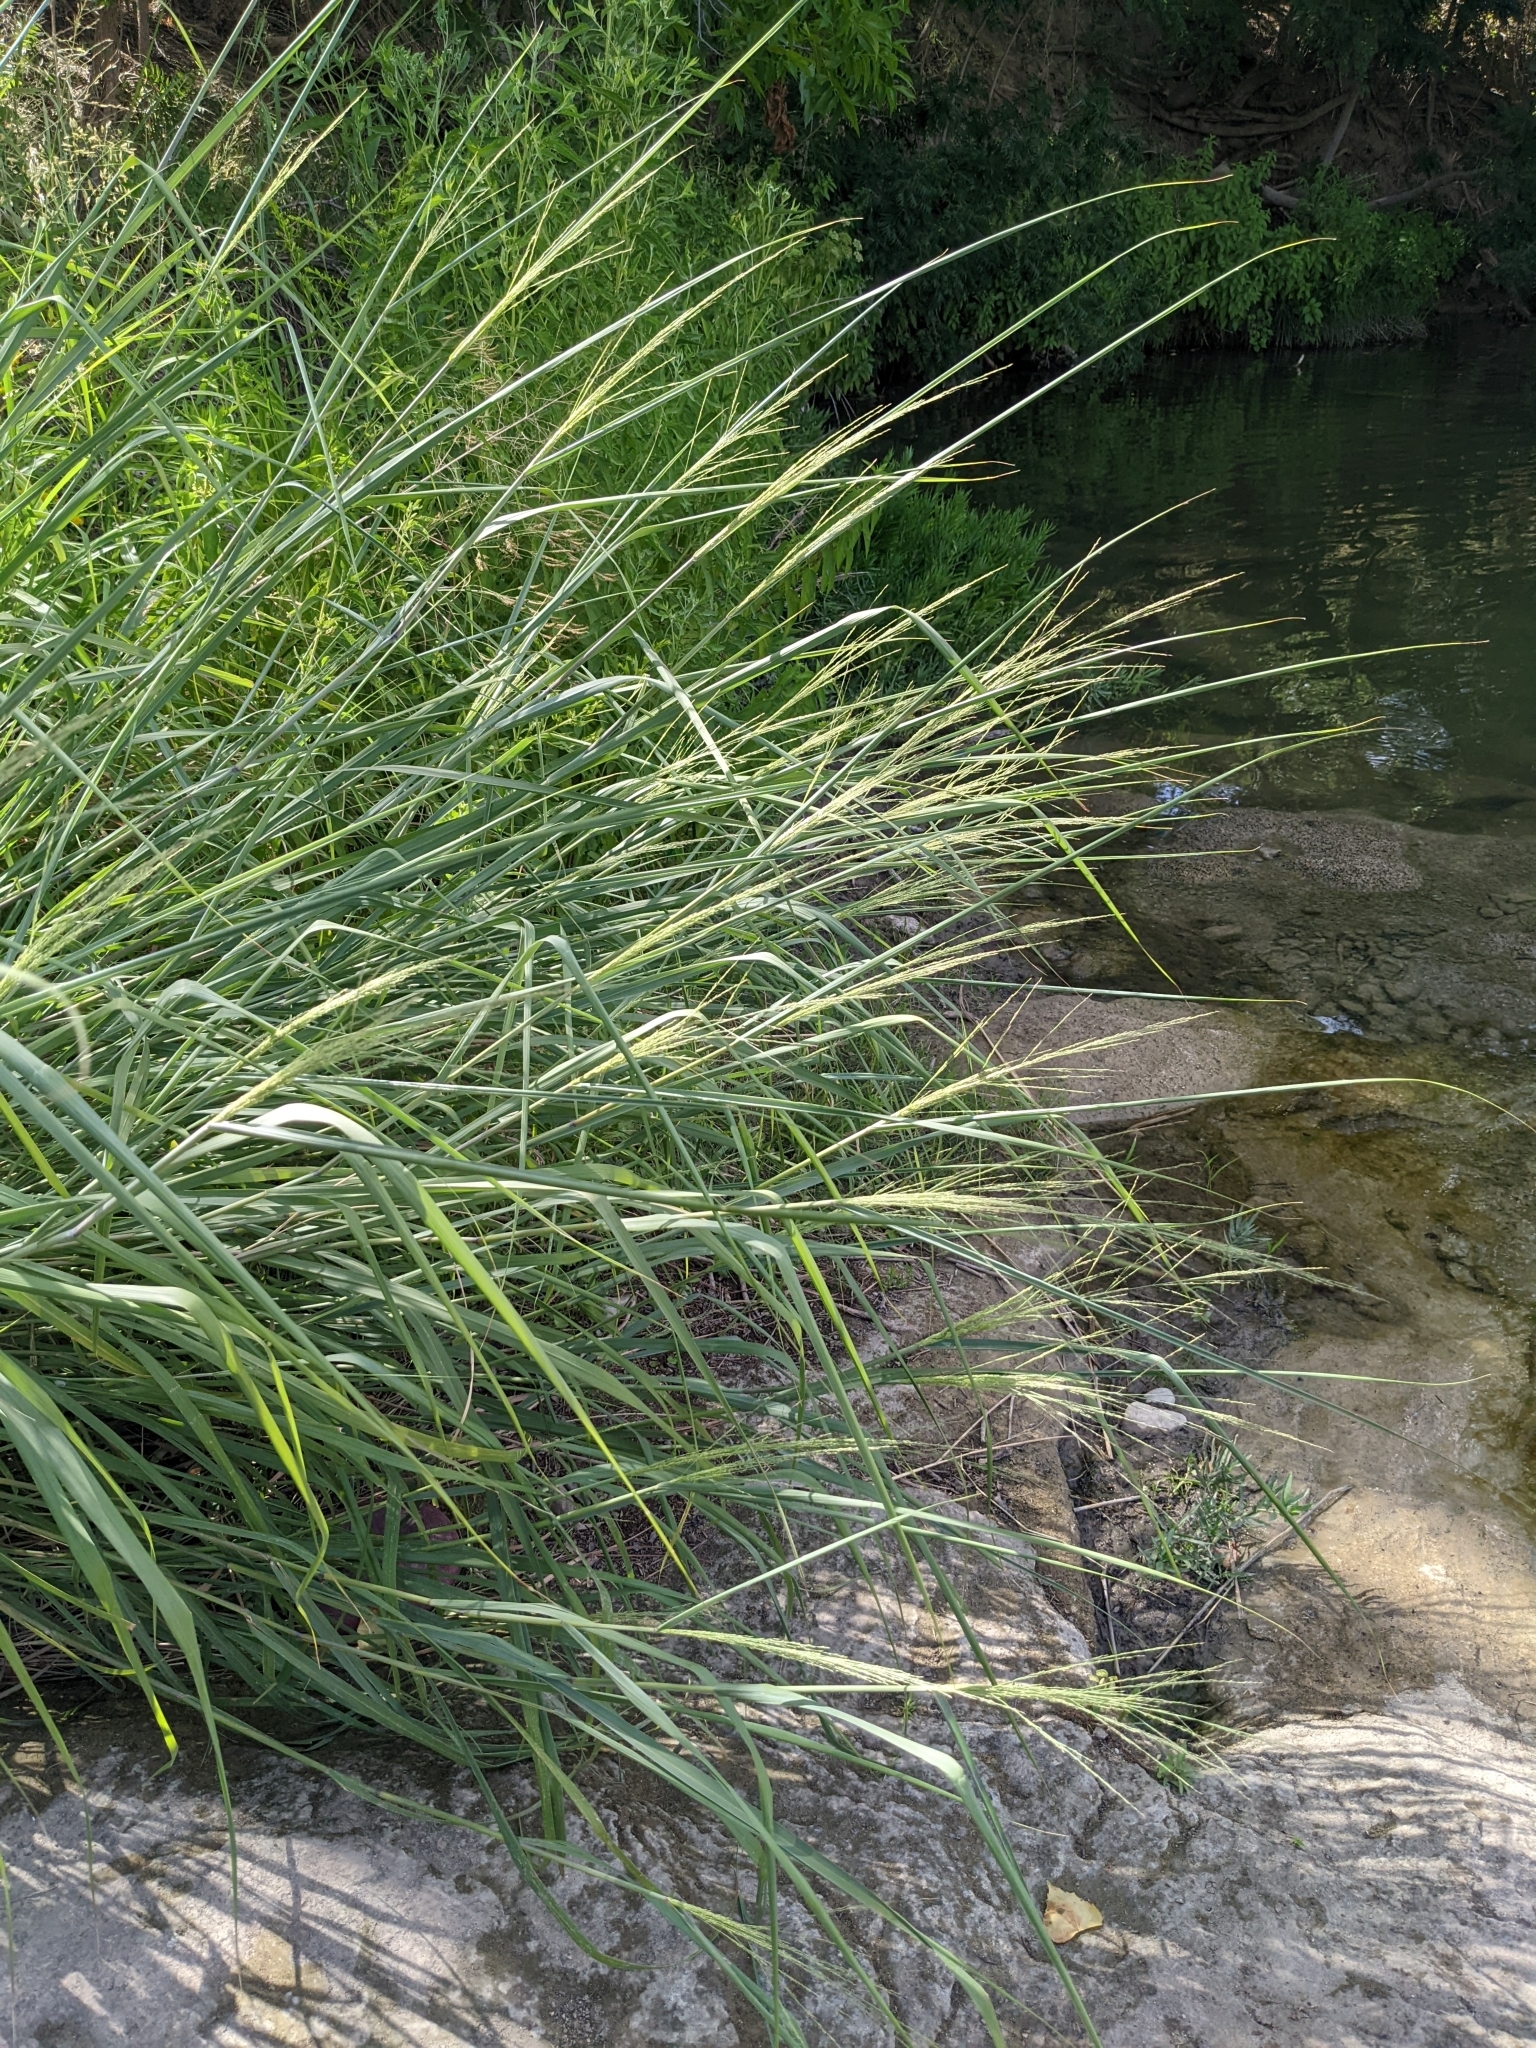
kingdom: Plantae
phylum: Tracheophyta
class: Liliopsida
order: Poales
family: Poaceae
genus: Panicum
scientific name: Panicum virgatum
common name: Switchgrass
